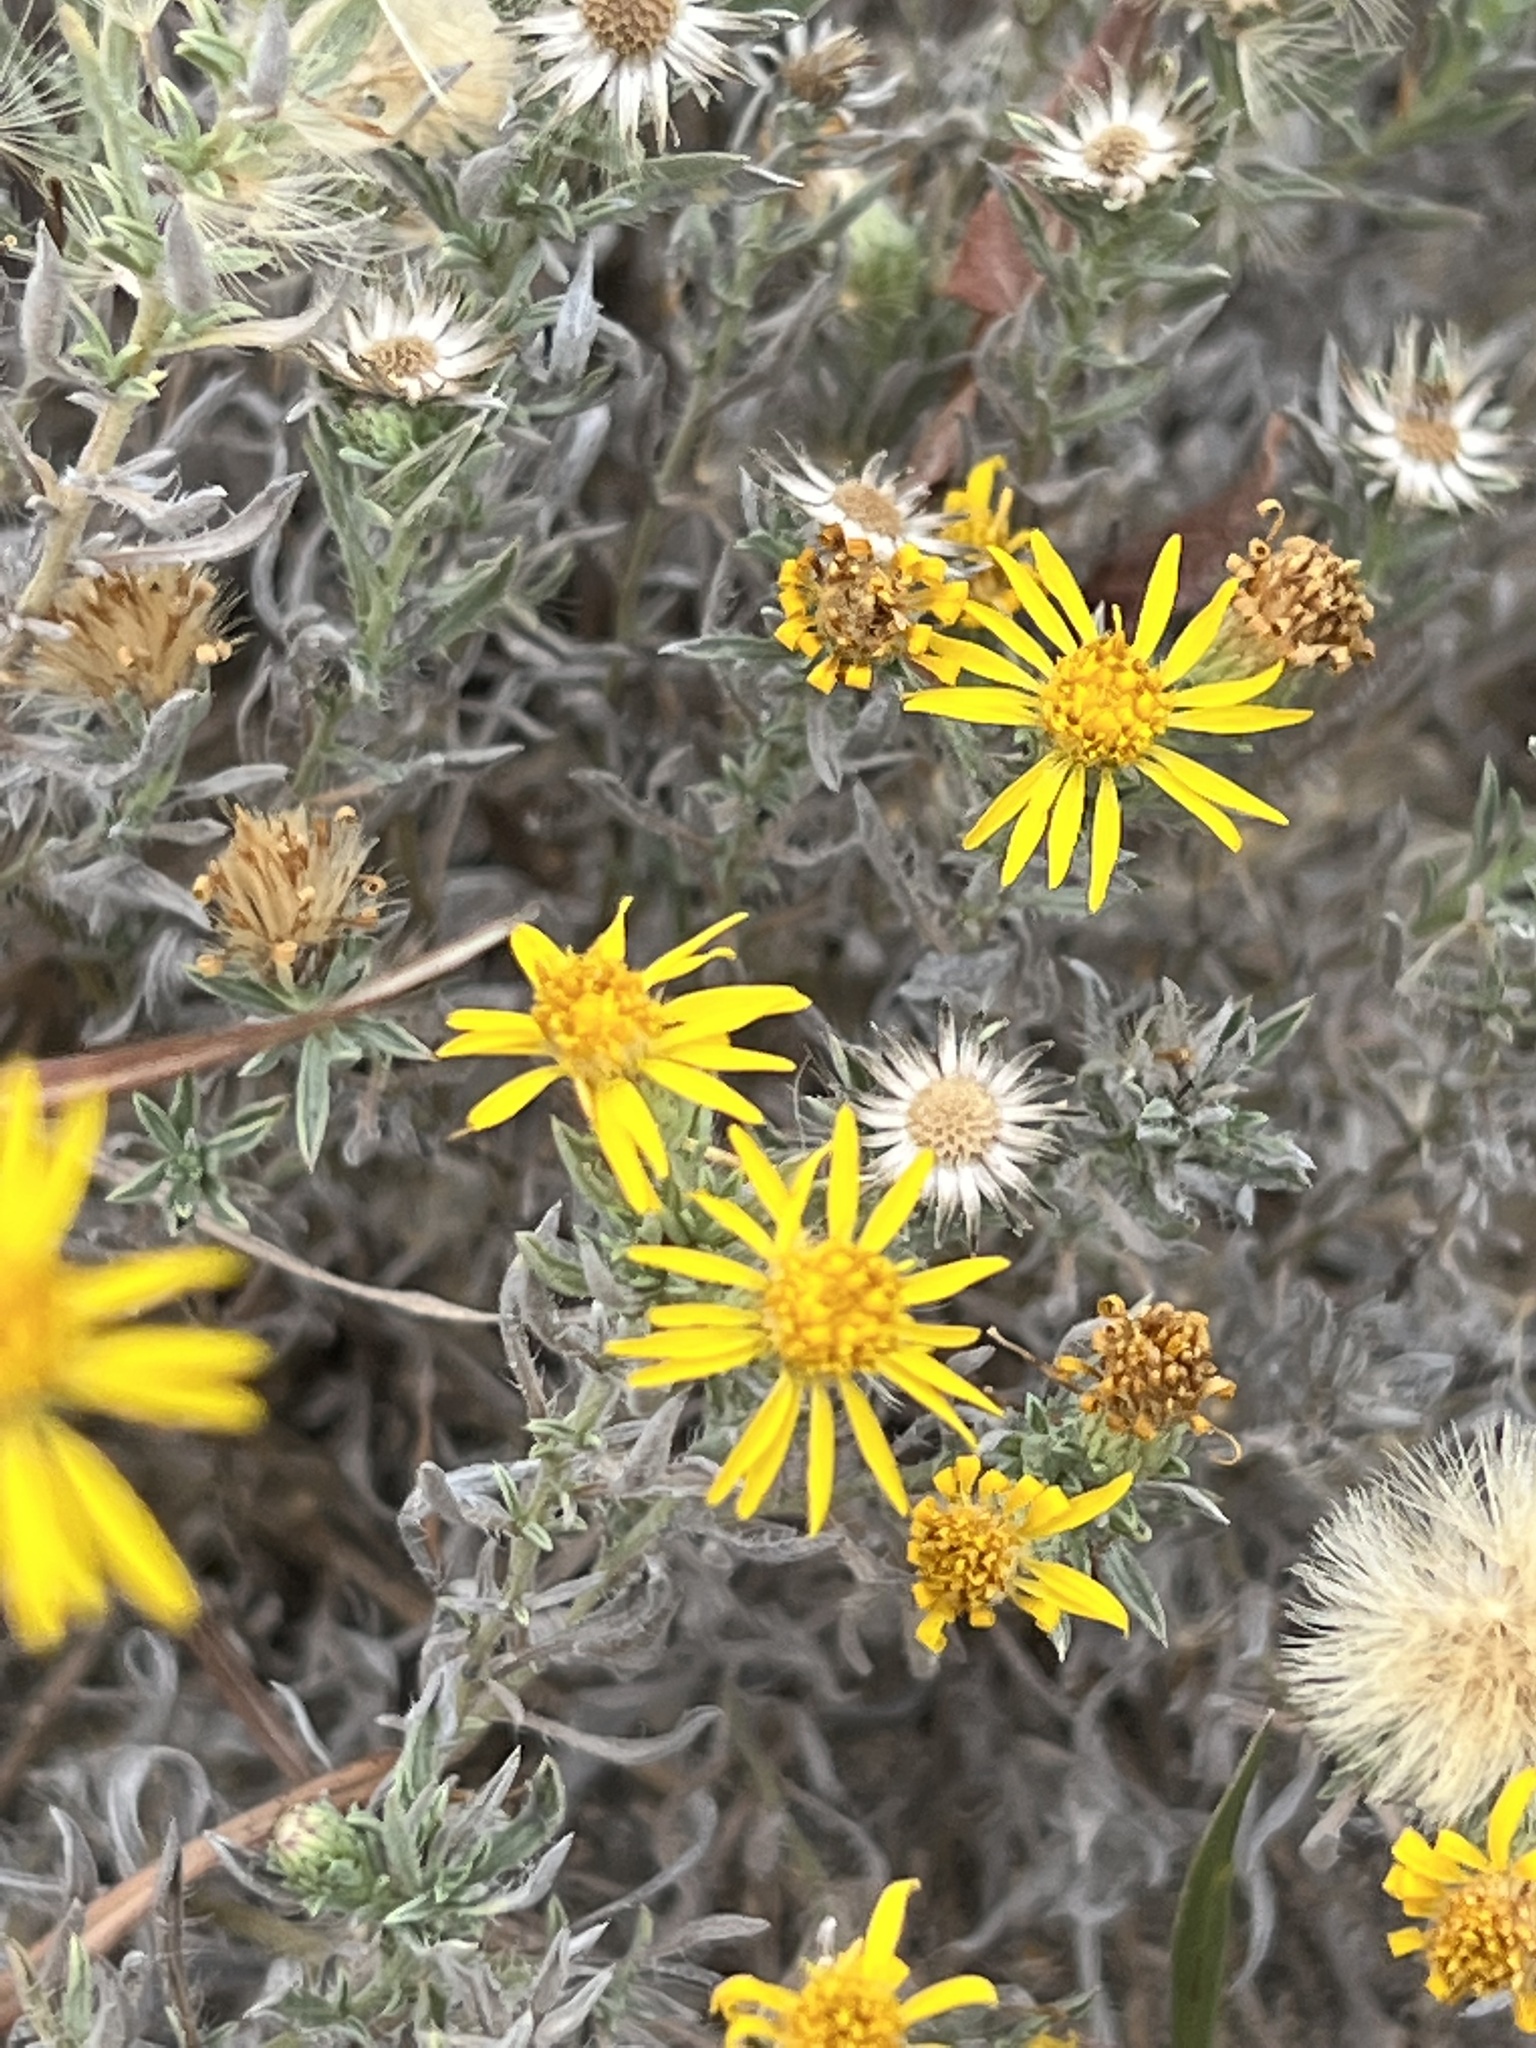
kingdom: Plantae
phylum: Tracheophyta
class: Magnoliopsida
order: Asterales
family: Asteraceae
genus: Heterotheca
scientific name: Heterotheca canescens
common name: Hoary golden-aster
